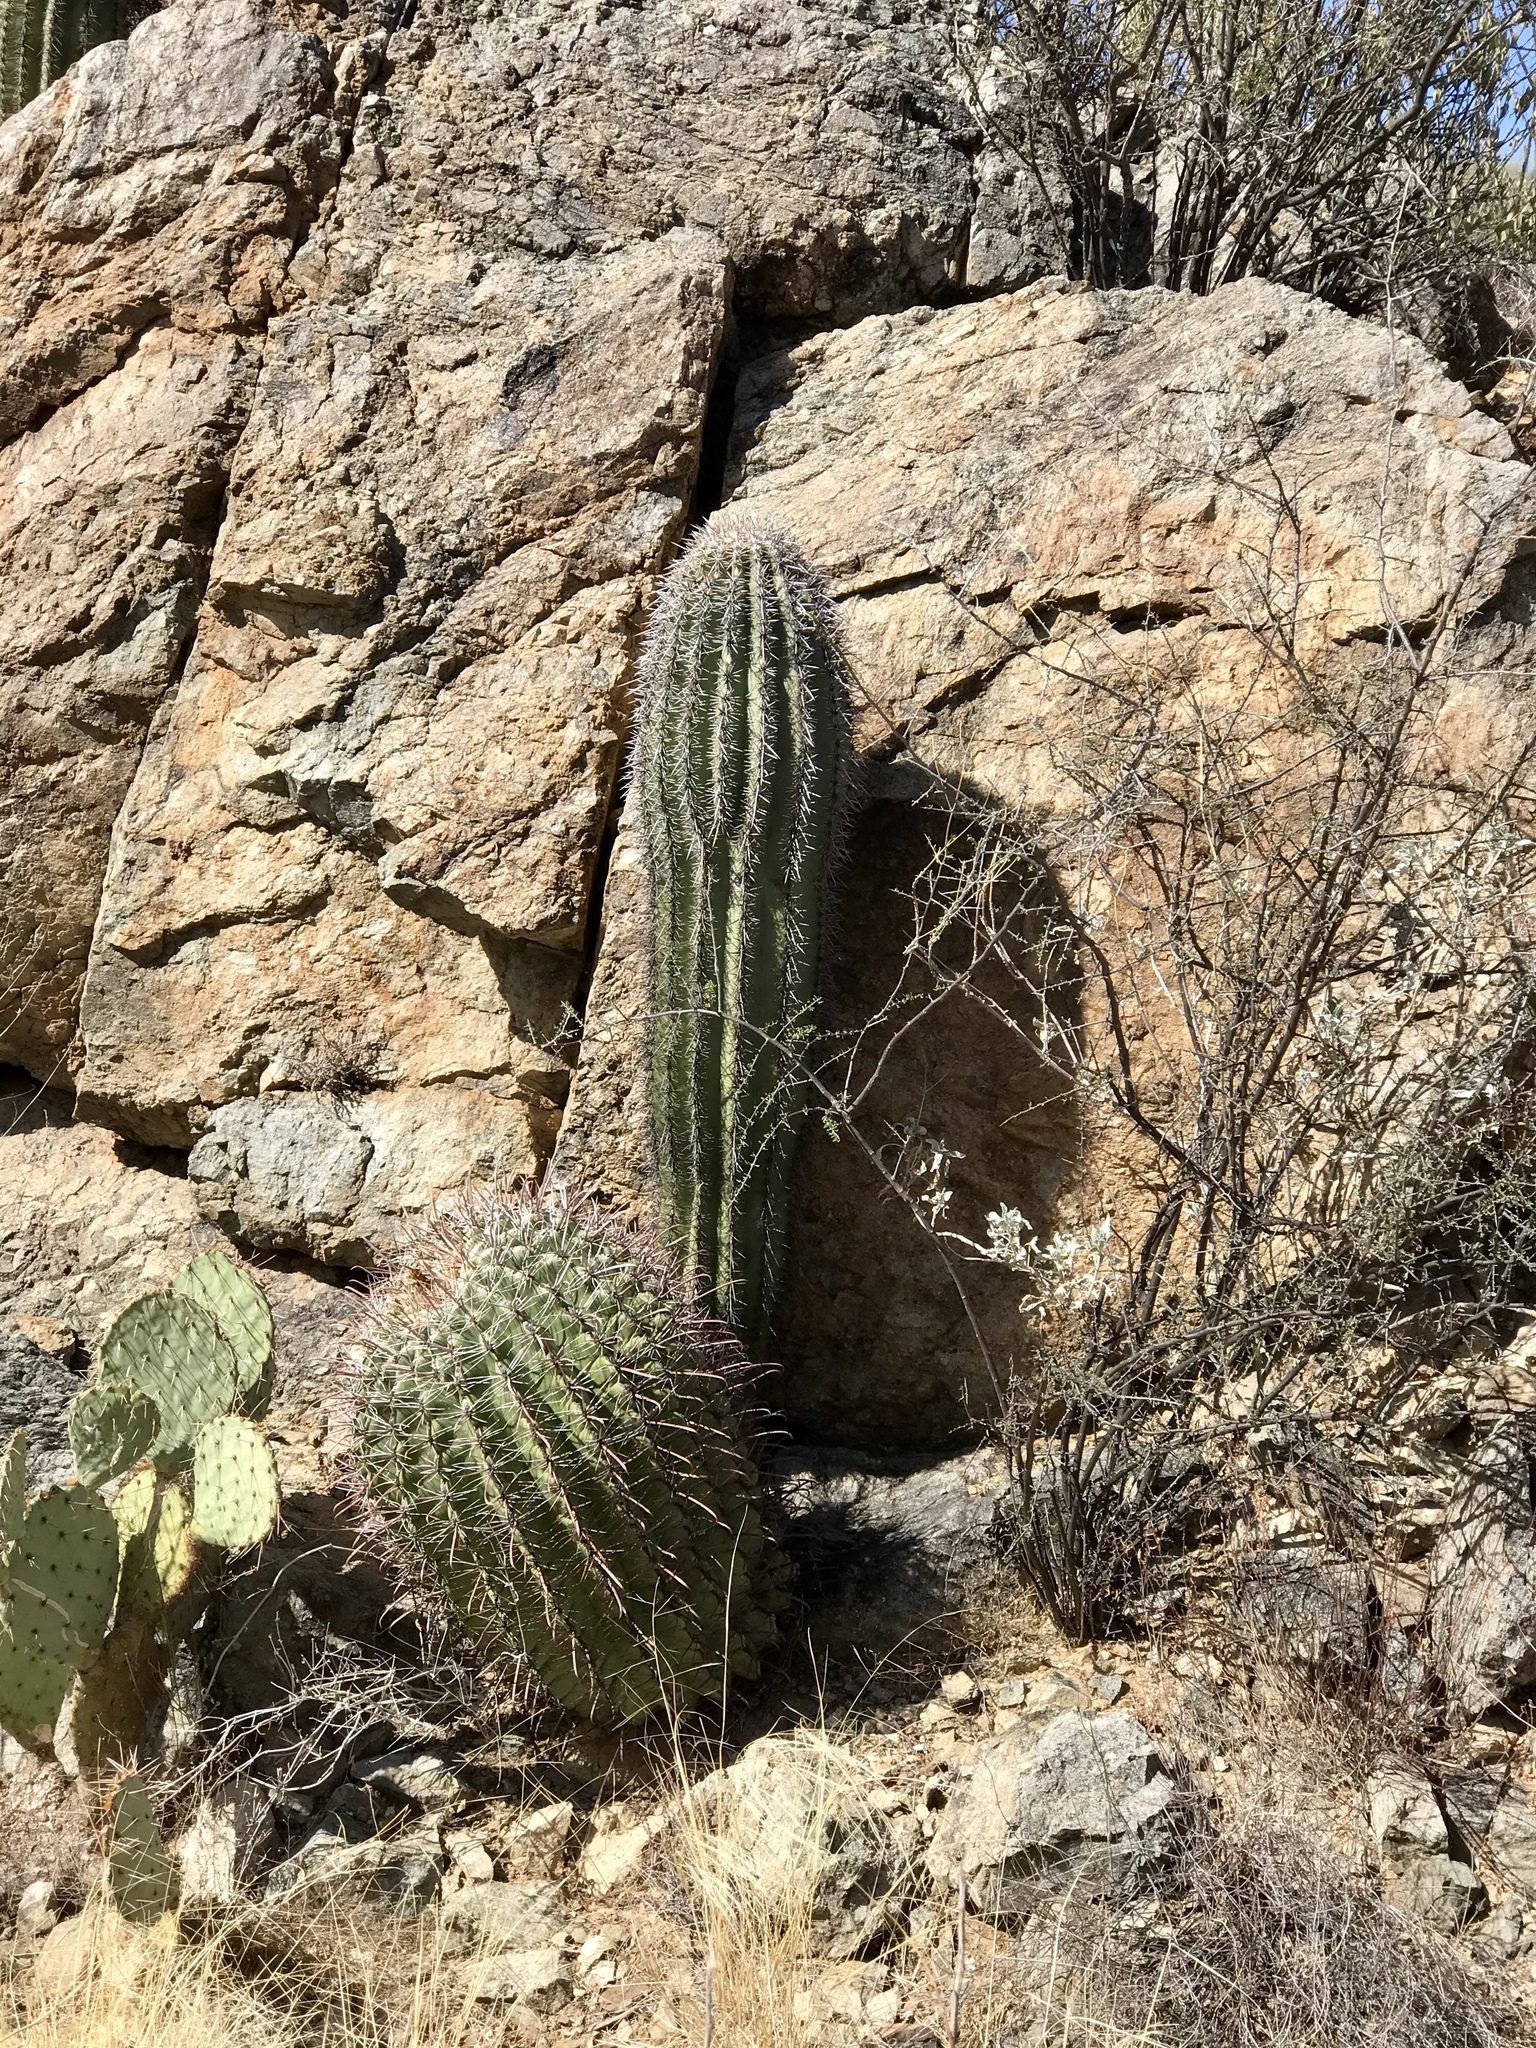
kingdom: Plantae
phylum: Tracheophyta
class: Magnoliopsida
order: Caryophyllales
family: Cactaceae
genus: Ferocactus
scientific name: Ferocactus wislizeni
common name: Candy barrel cactus
